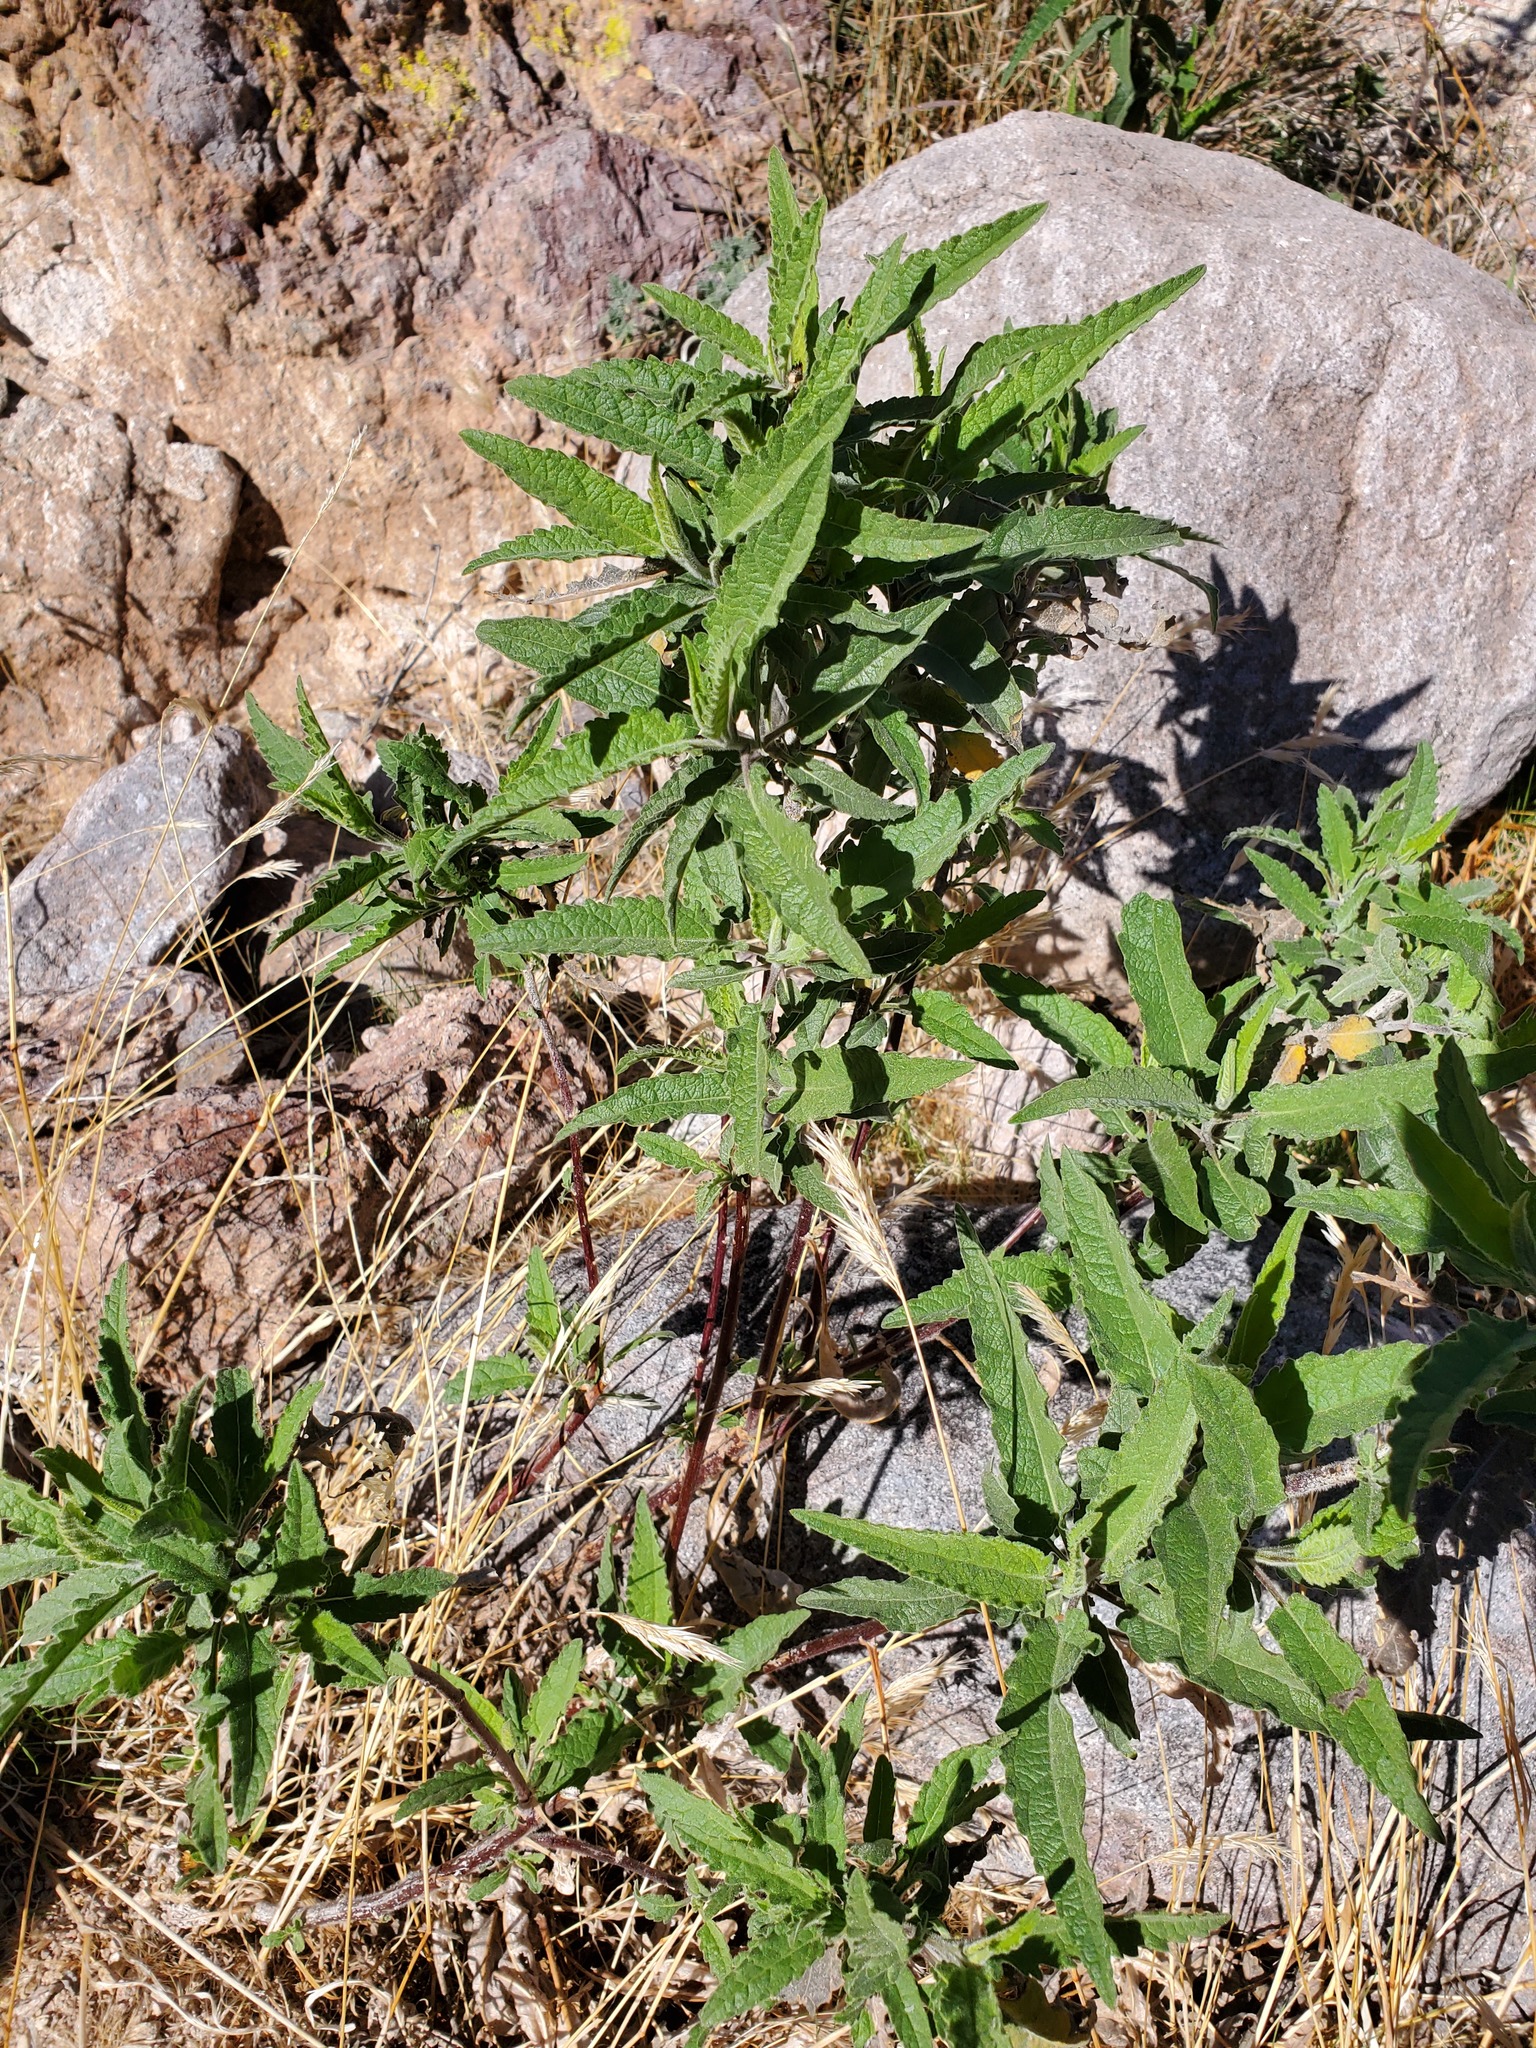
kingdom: Plantae
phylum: Tracheophyta
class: Magnoliopsida
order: Asterales
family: Asteraceae
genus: Ambrosia
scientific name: Ambrosia ambrosioides
